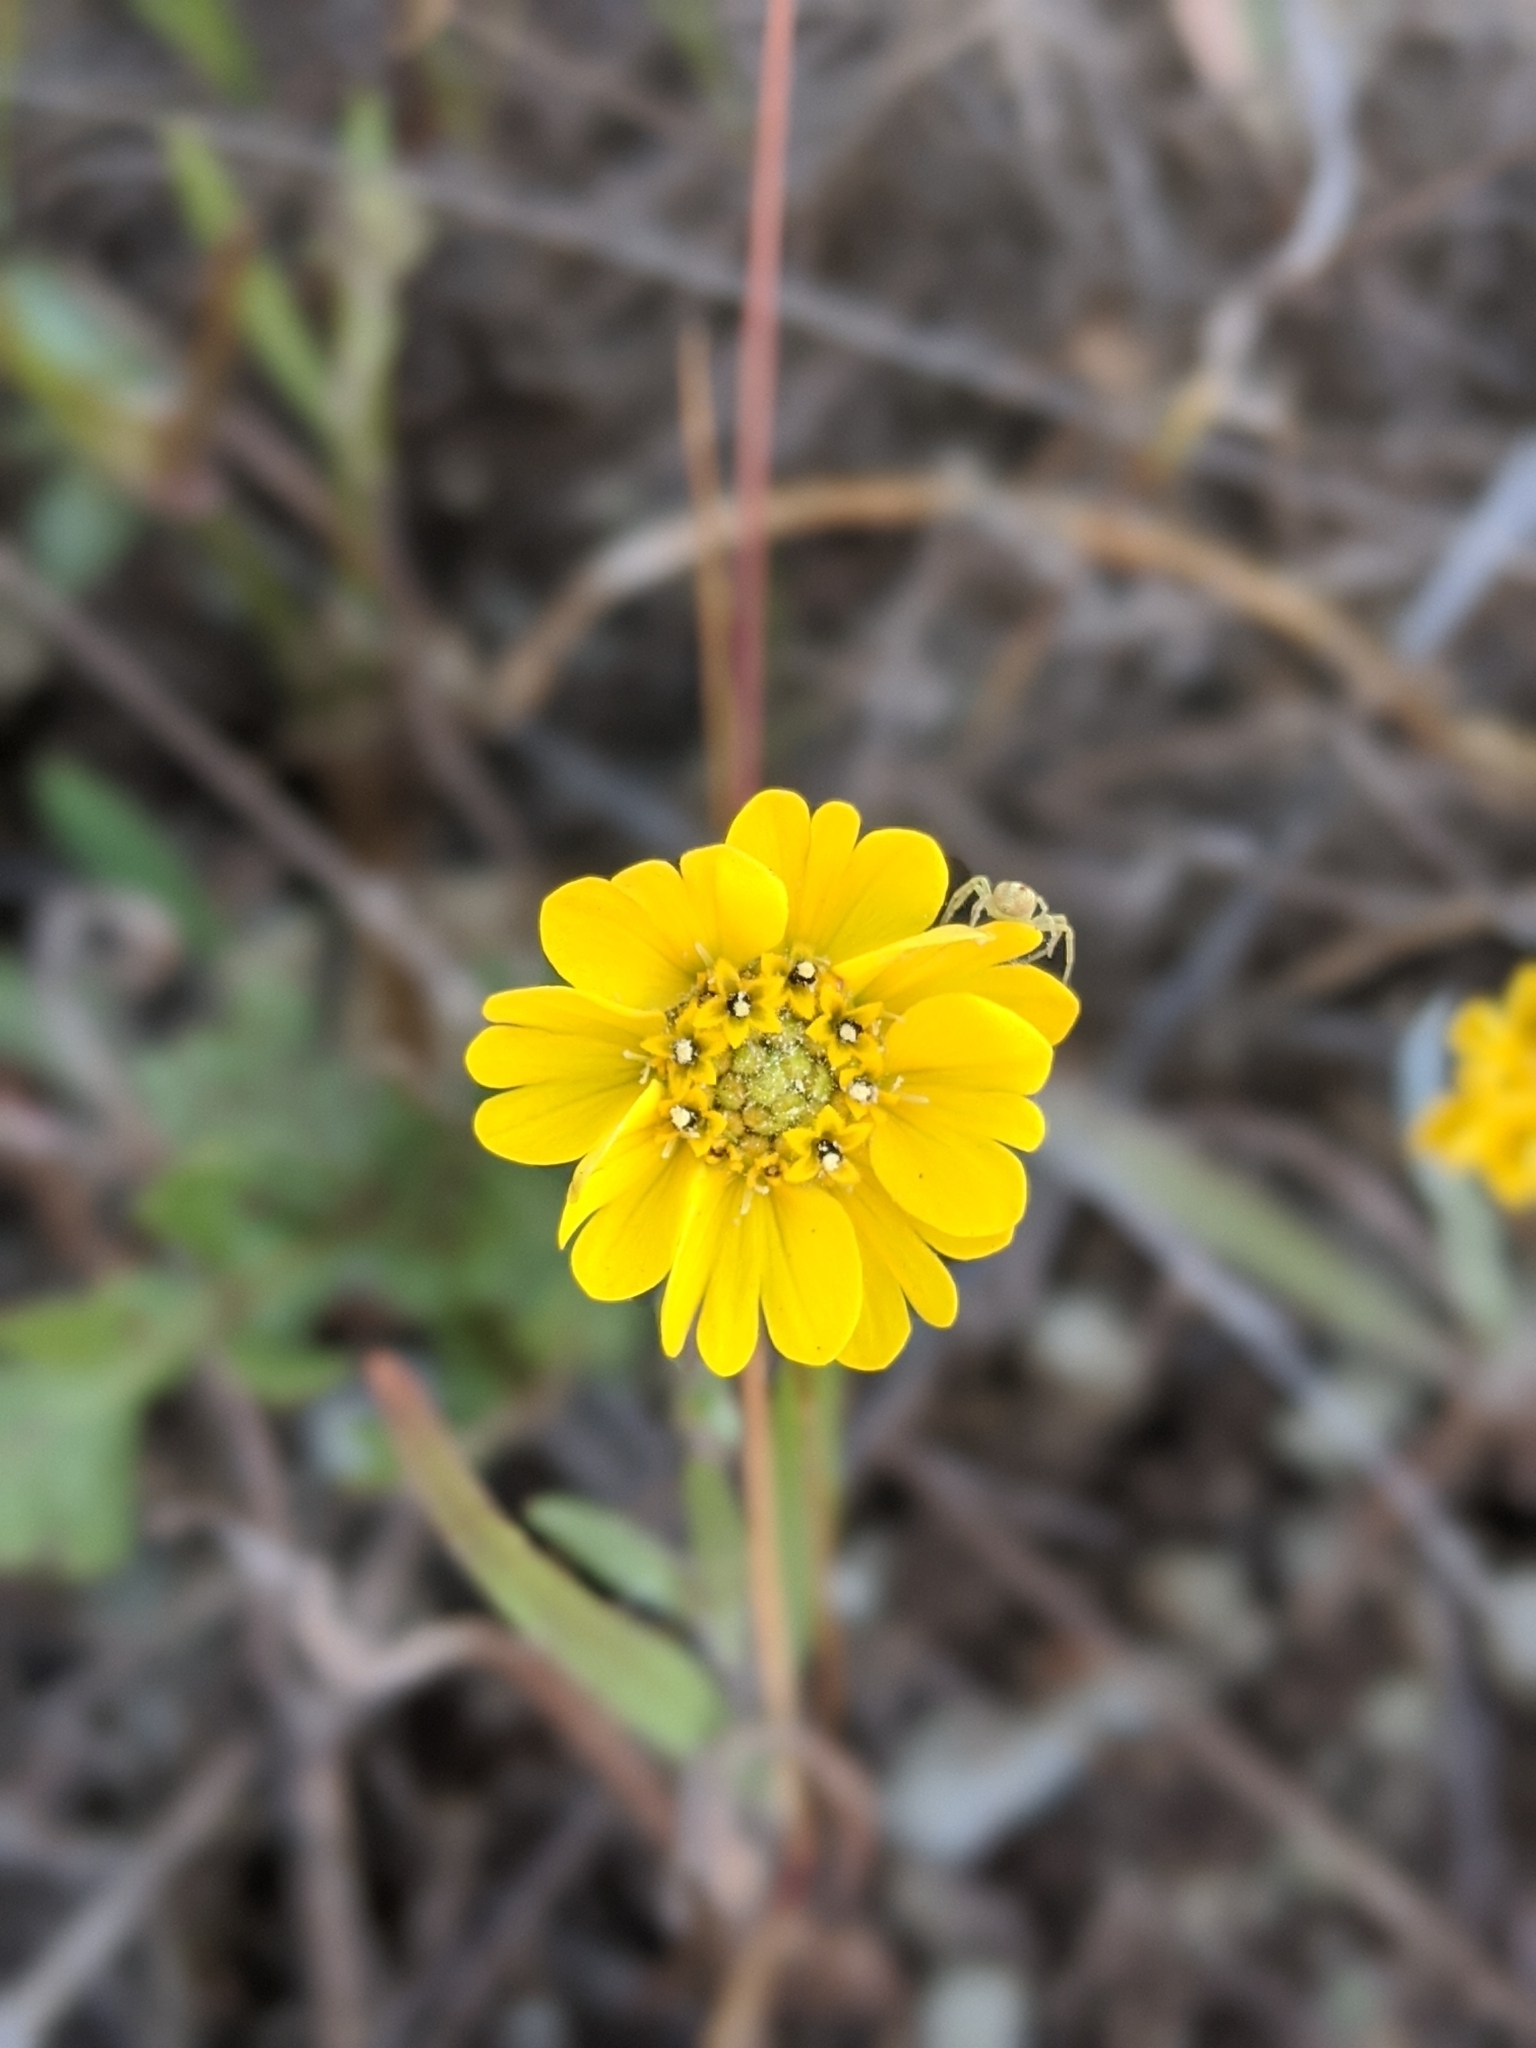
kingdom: Plantae
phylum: Tracheophyta
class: Magnoliopsida
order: Asterales
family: Asteraceae
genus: Hemizonia
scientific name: Hemizonia congesta
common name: Hayfield tarweed
